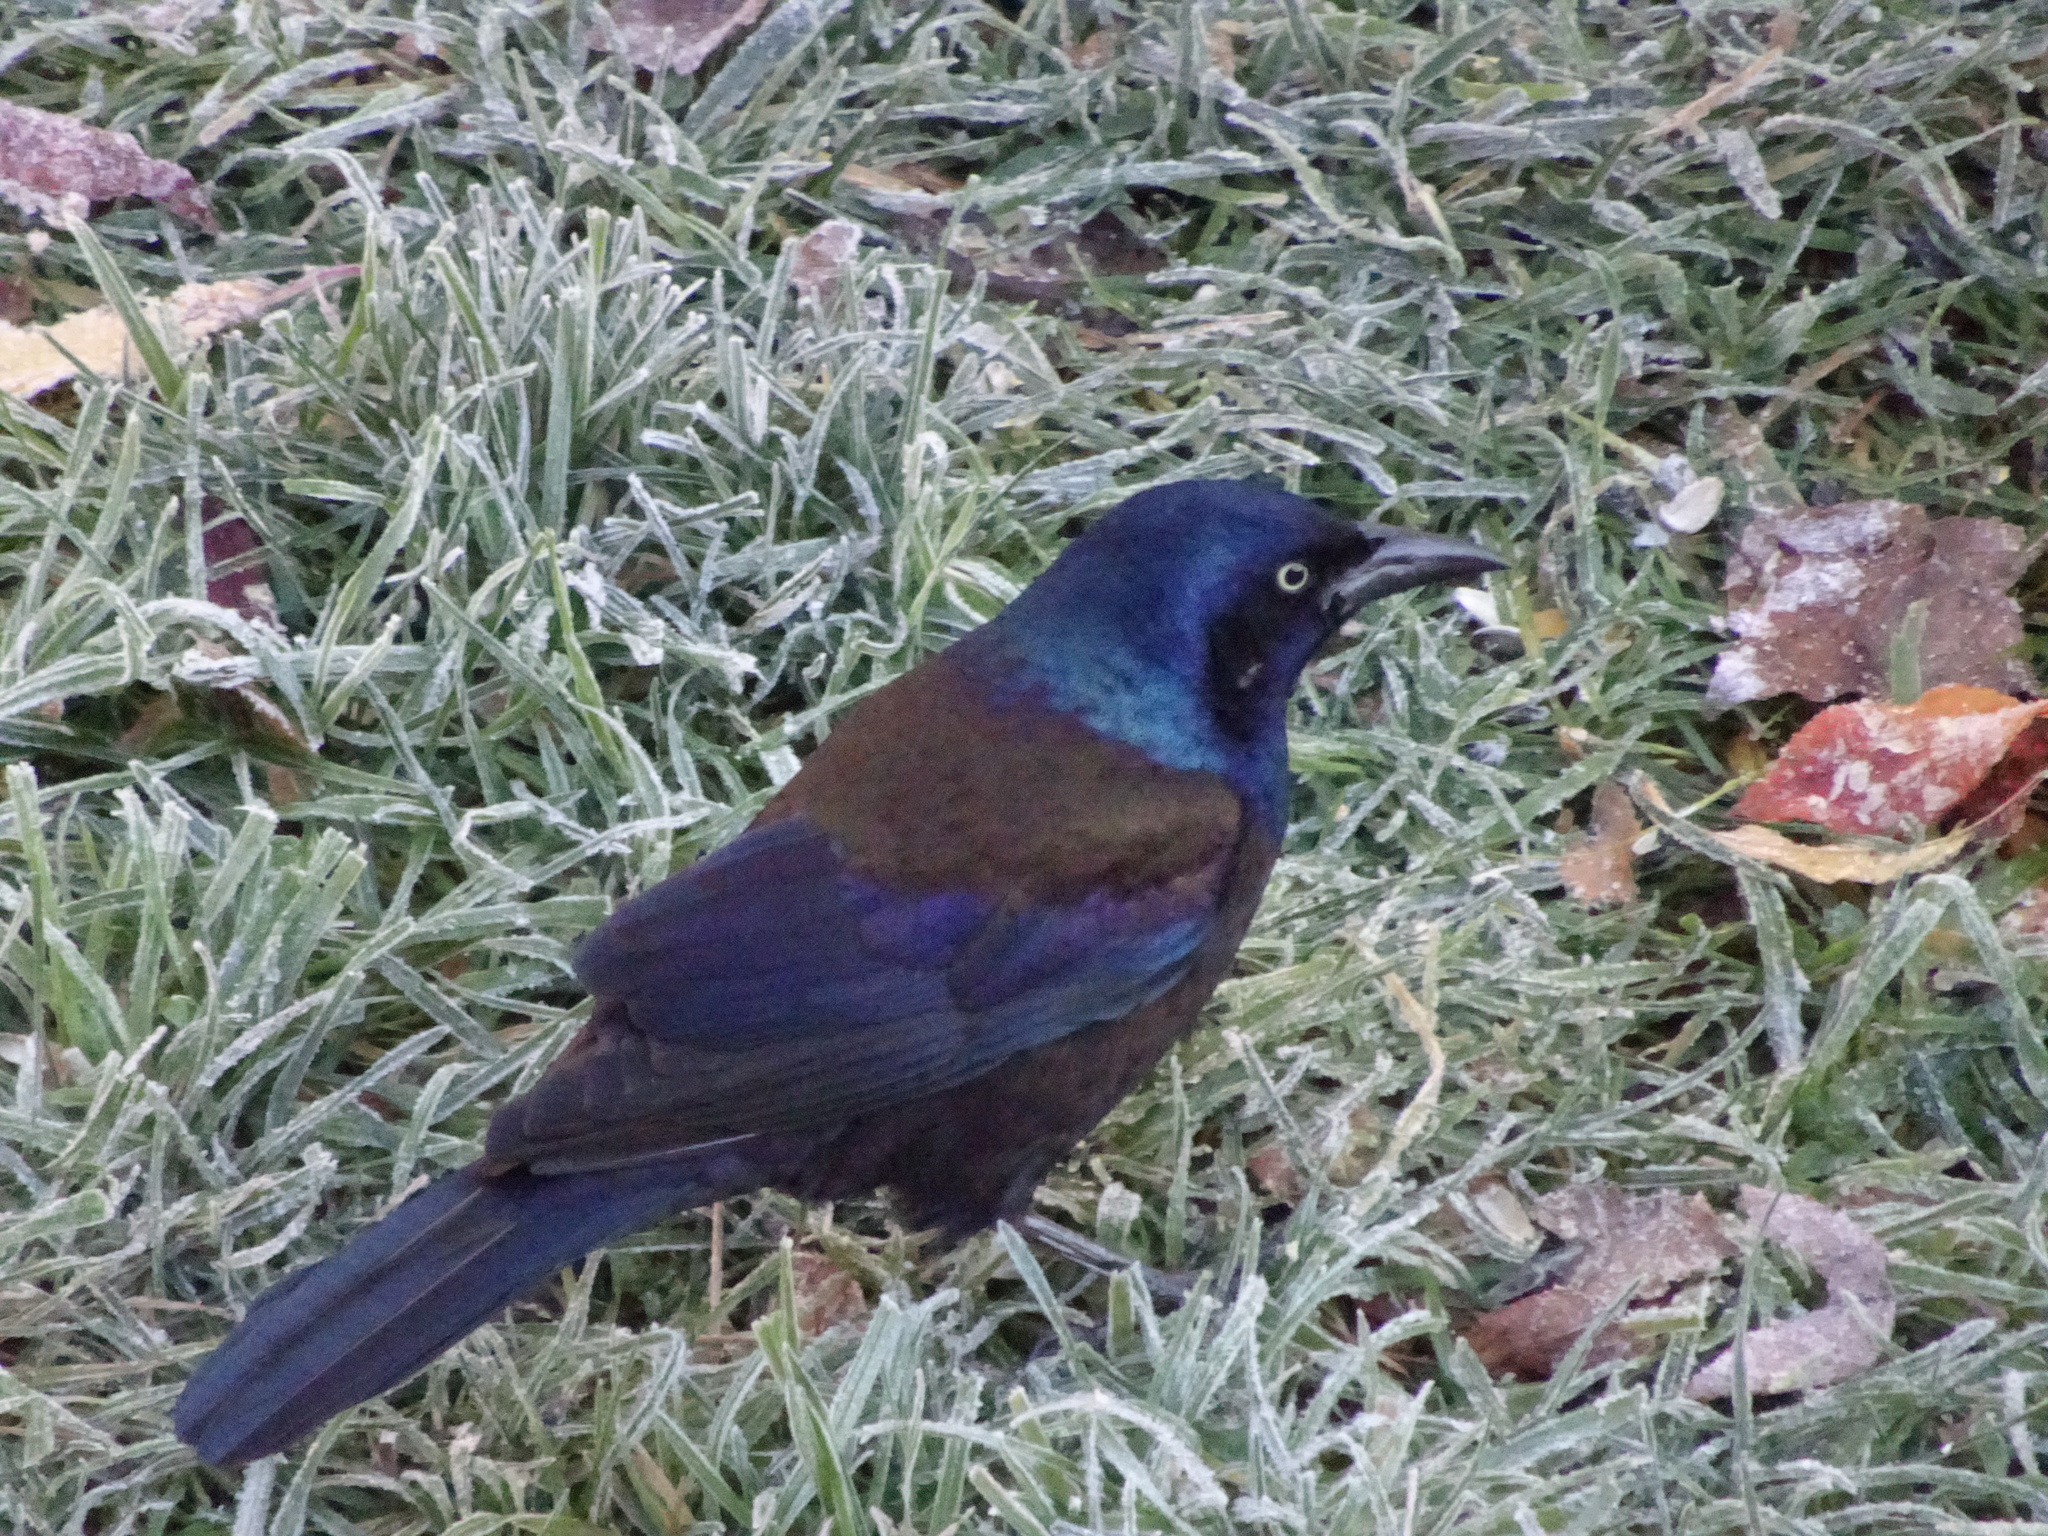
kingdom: Animalia
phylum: Chordata
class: Aves
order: Passeriformes
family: Icteridae
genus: Quiscalus
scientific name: Quiscalus quiscula
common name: Common grackle
